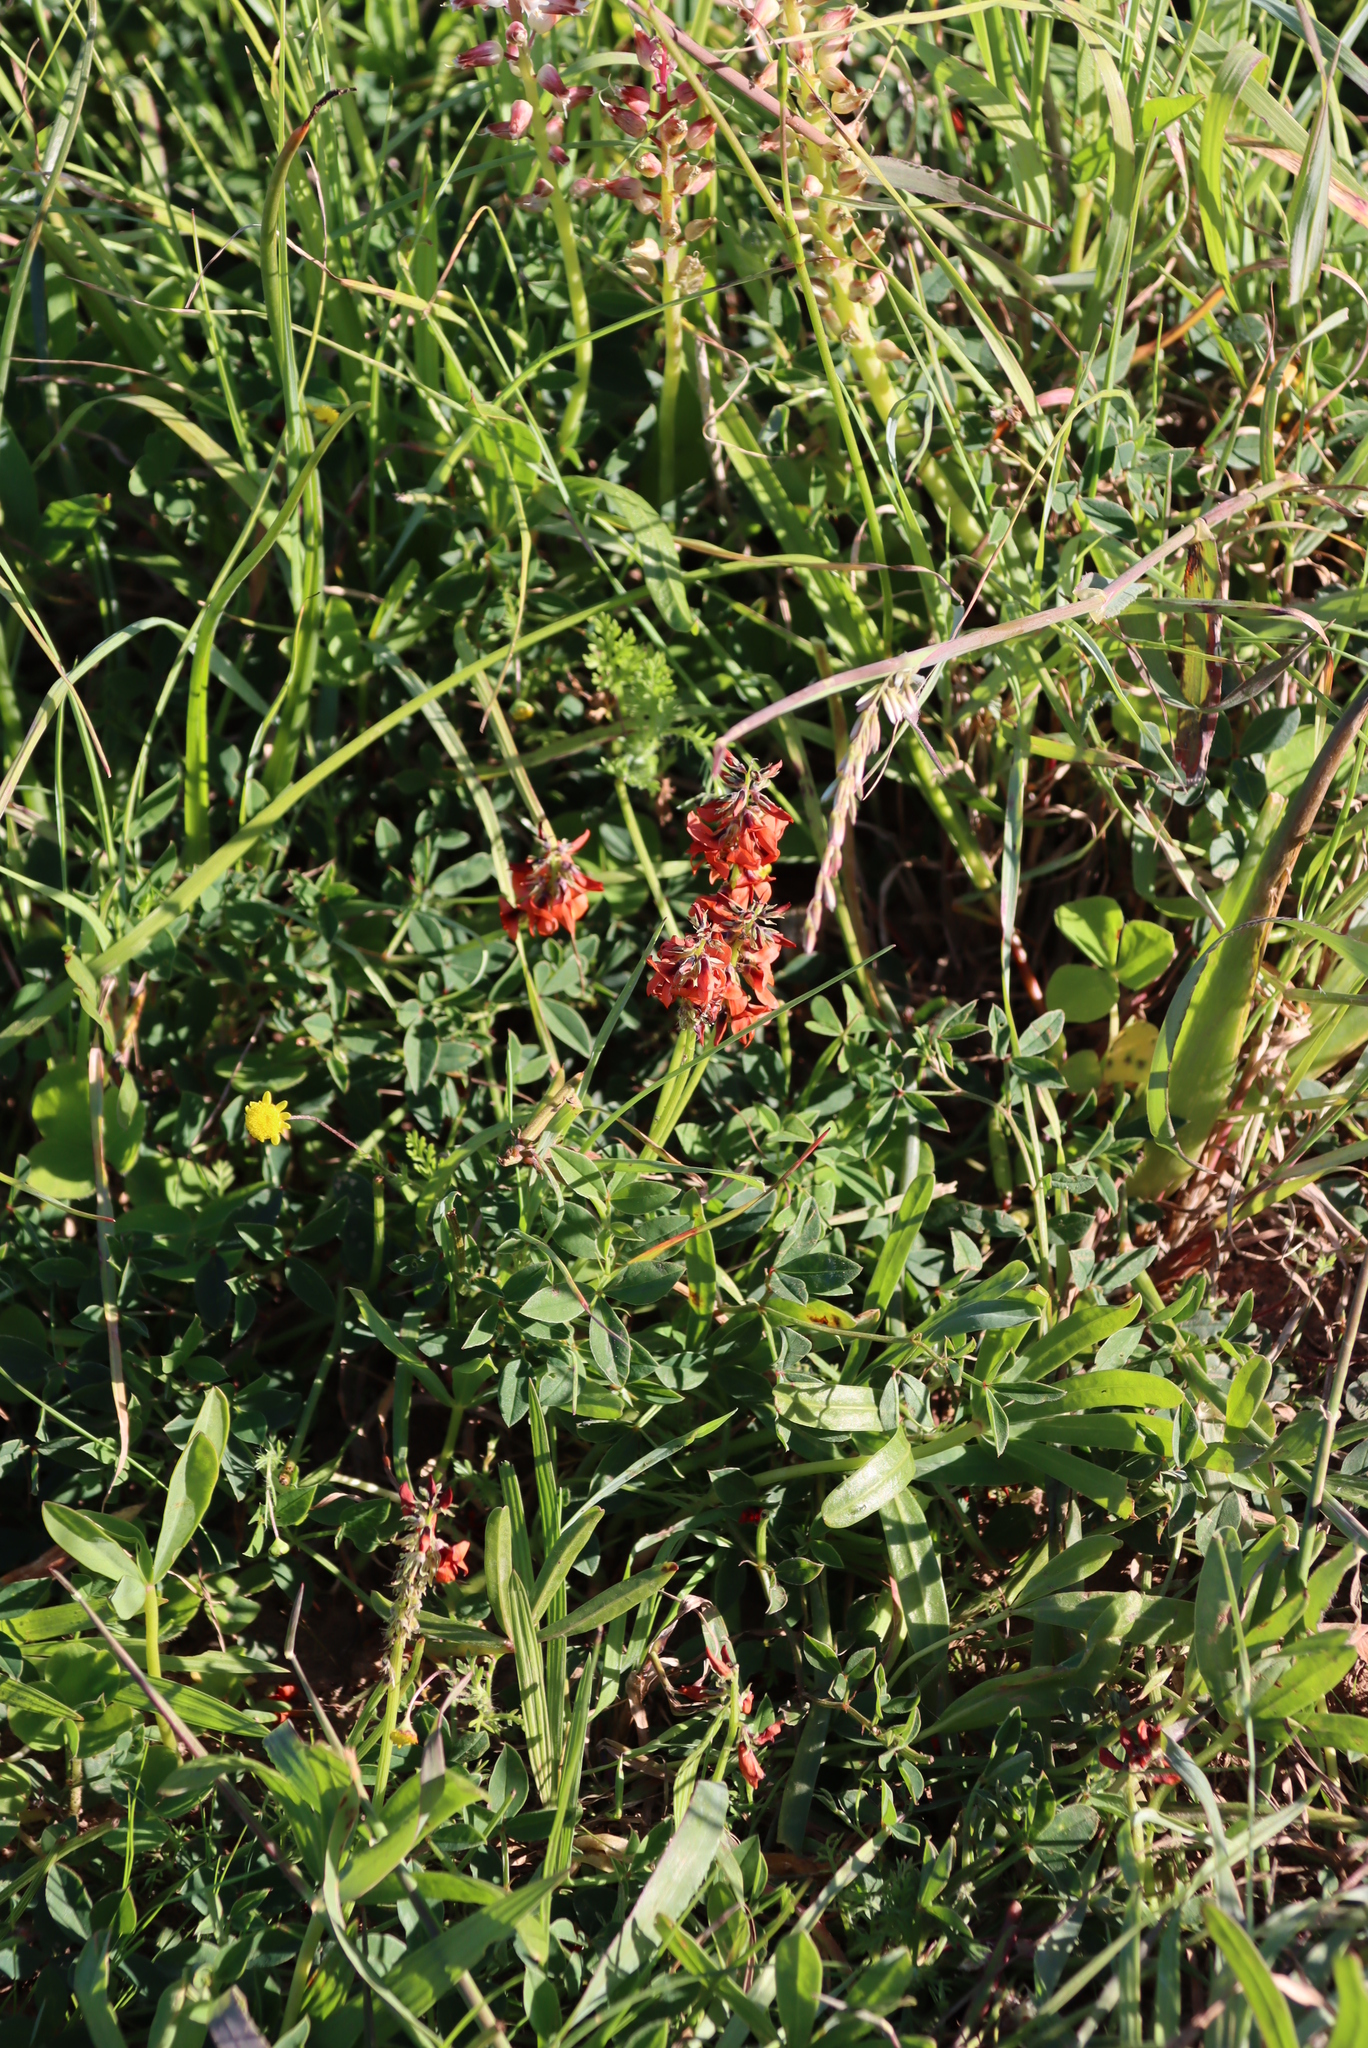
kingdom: Plantae
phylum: Tracheophyta
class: Magnoliopsida
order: Fabales
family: Fabaceae
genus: Indigofera
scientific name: Indigofera
